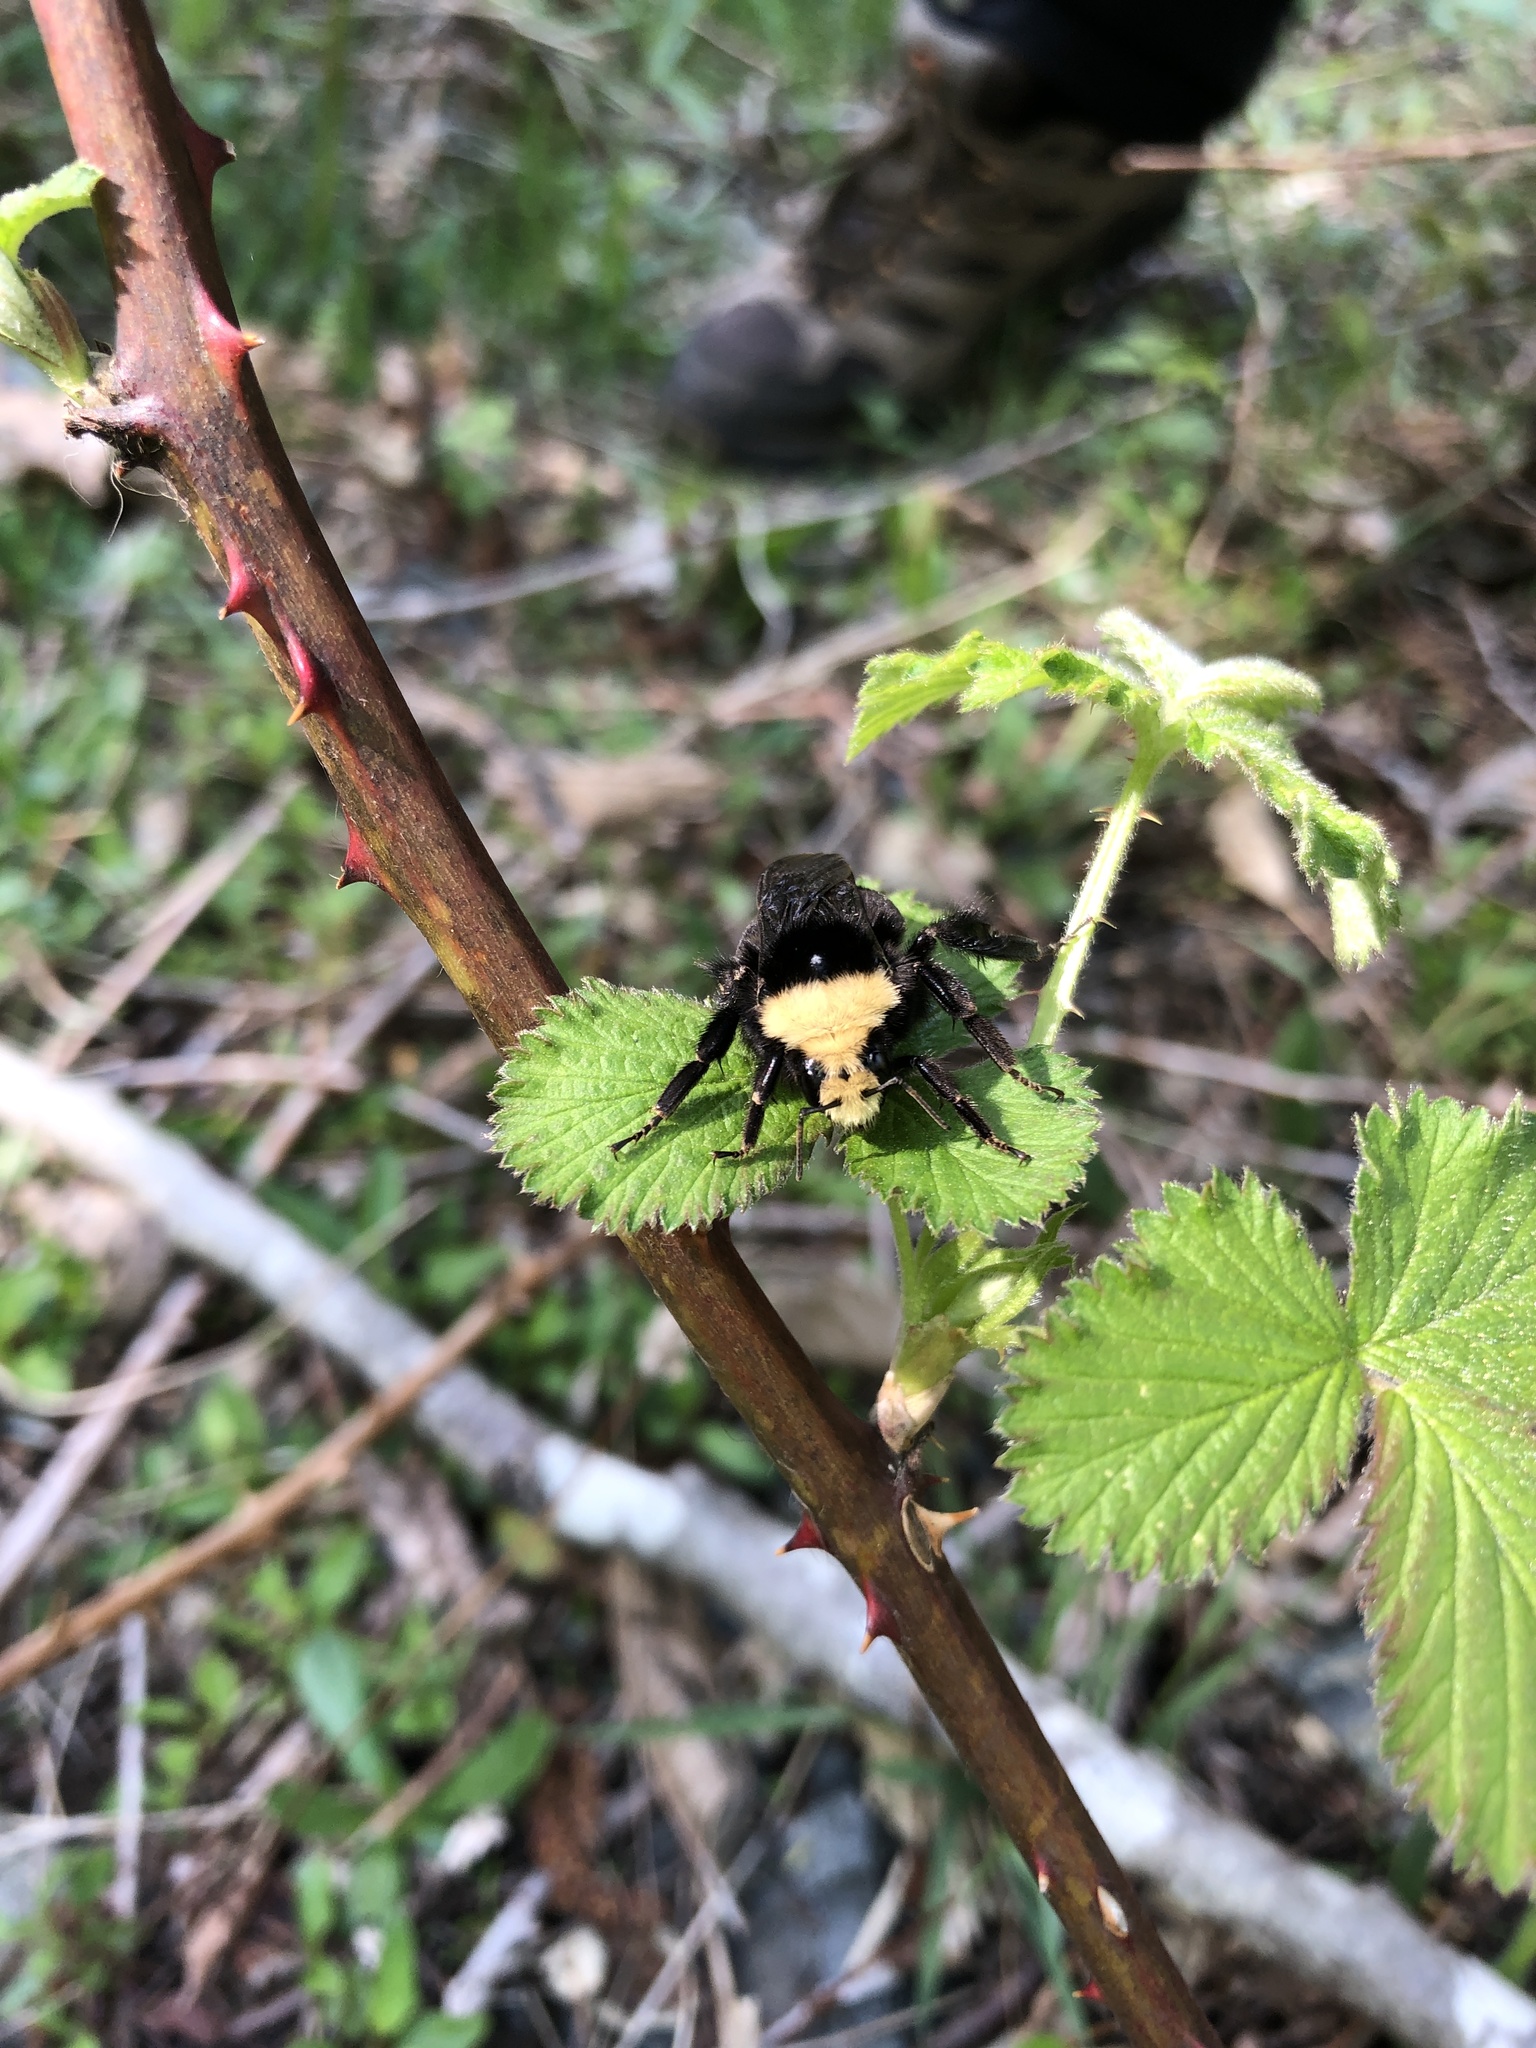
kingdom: Animalia
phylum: Arthropoda
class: Insecta
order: Hymenoptera
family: Apidae
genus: Bombus
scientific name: Bombus vosnesenskii
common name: Vosnesensky bumble bee
